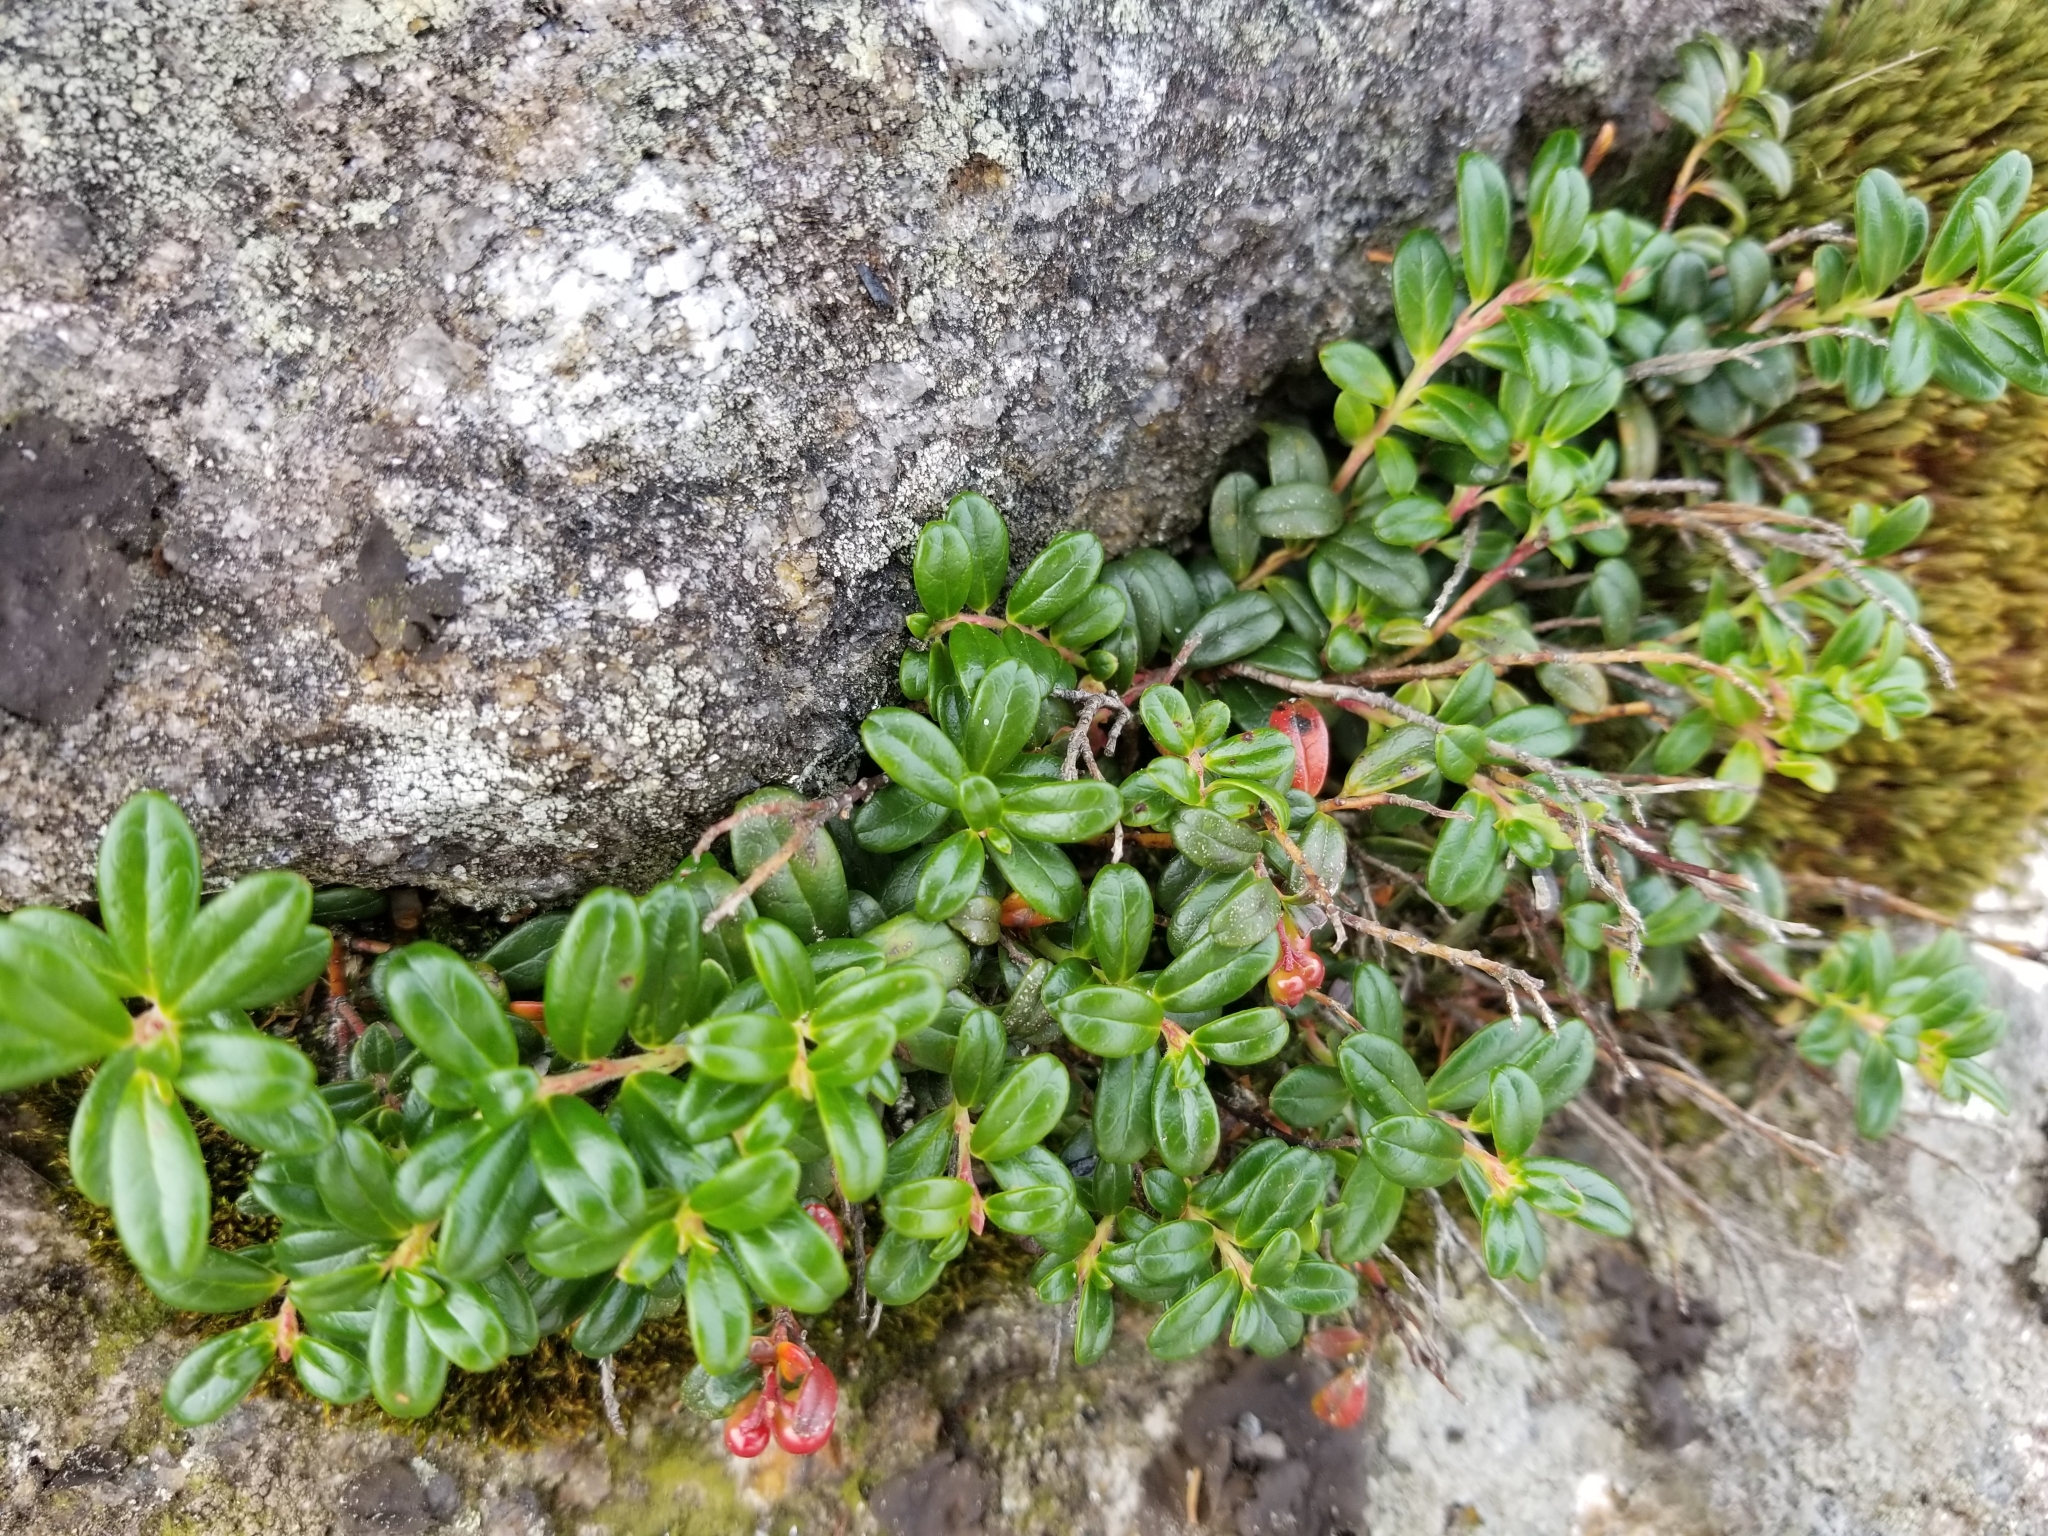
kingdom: Plantae
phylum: Tracheophyta
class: Magnoliopsida
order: Ericales
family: Ericaceae
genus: Vaccinium
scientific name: Vaccinium vitis-idaea
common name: Cowberry
